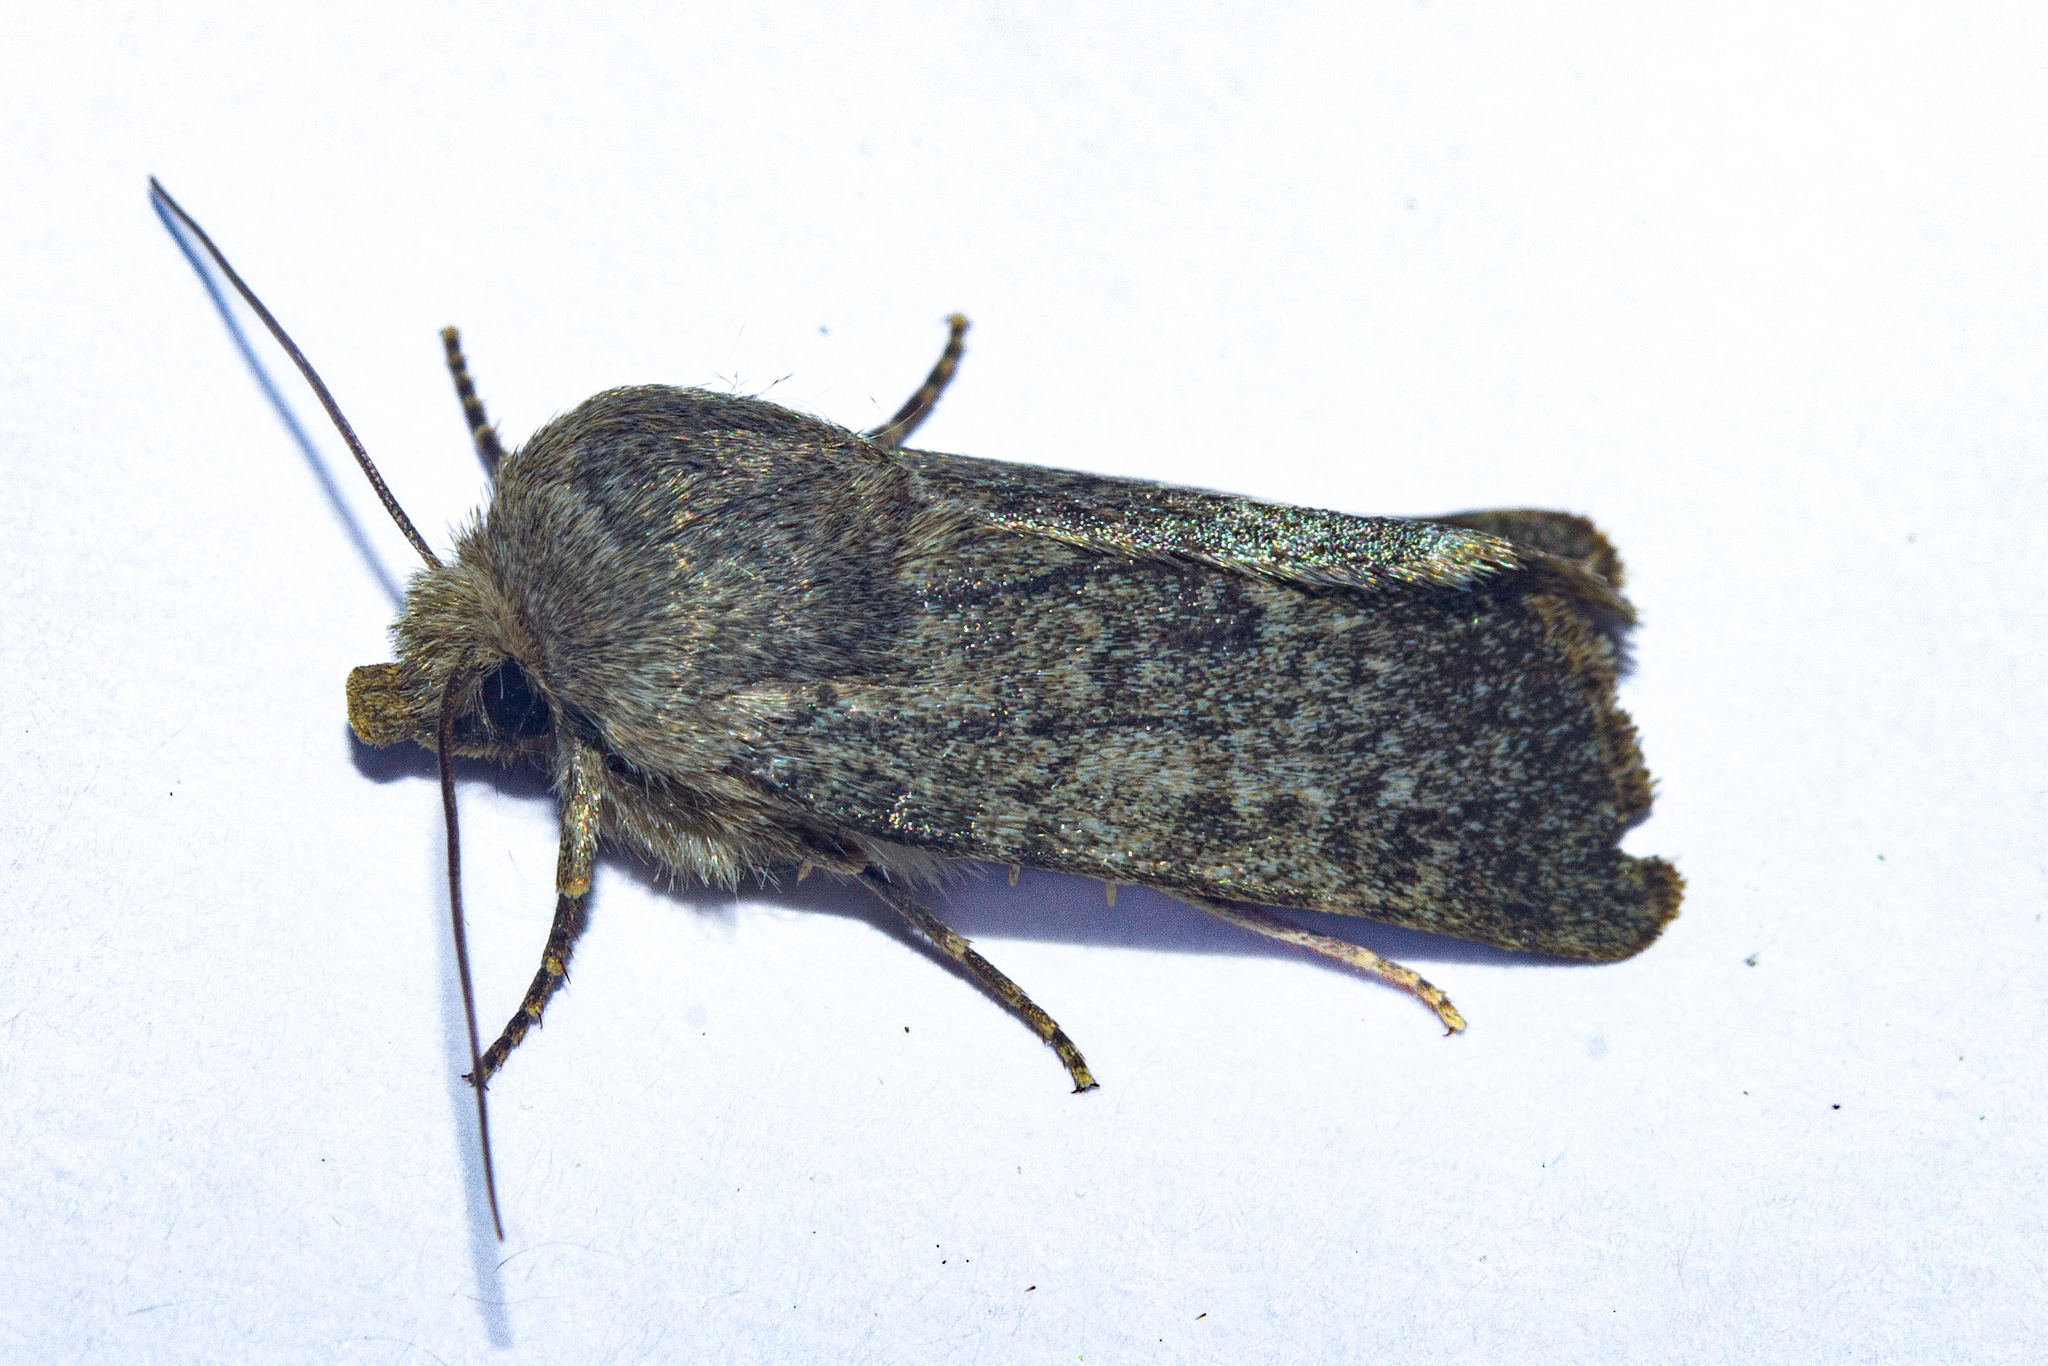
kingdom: Animalia
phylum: Arthropoda
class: Insecta
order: Lepidoptera
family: Noctuidae
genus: Physetica
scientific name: Physetica caerulea
